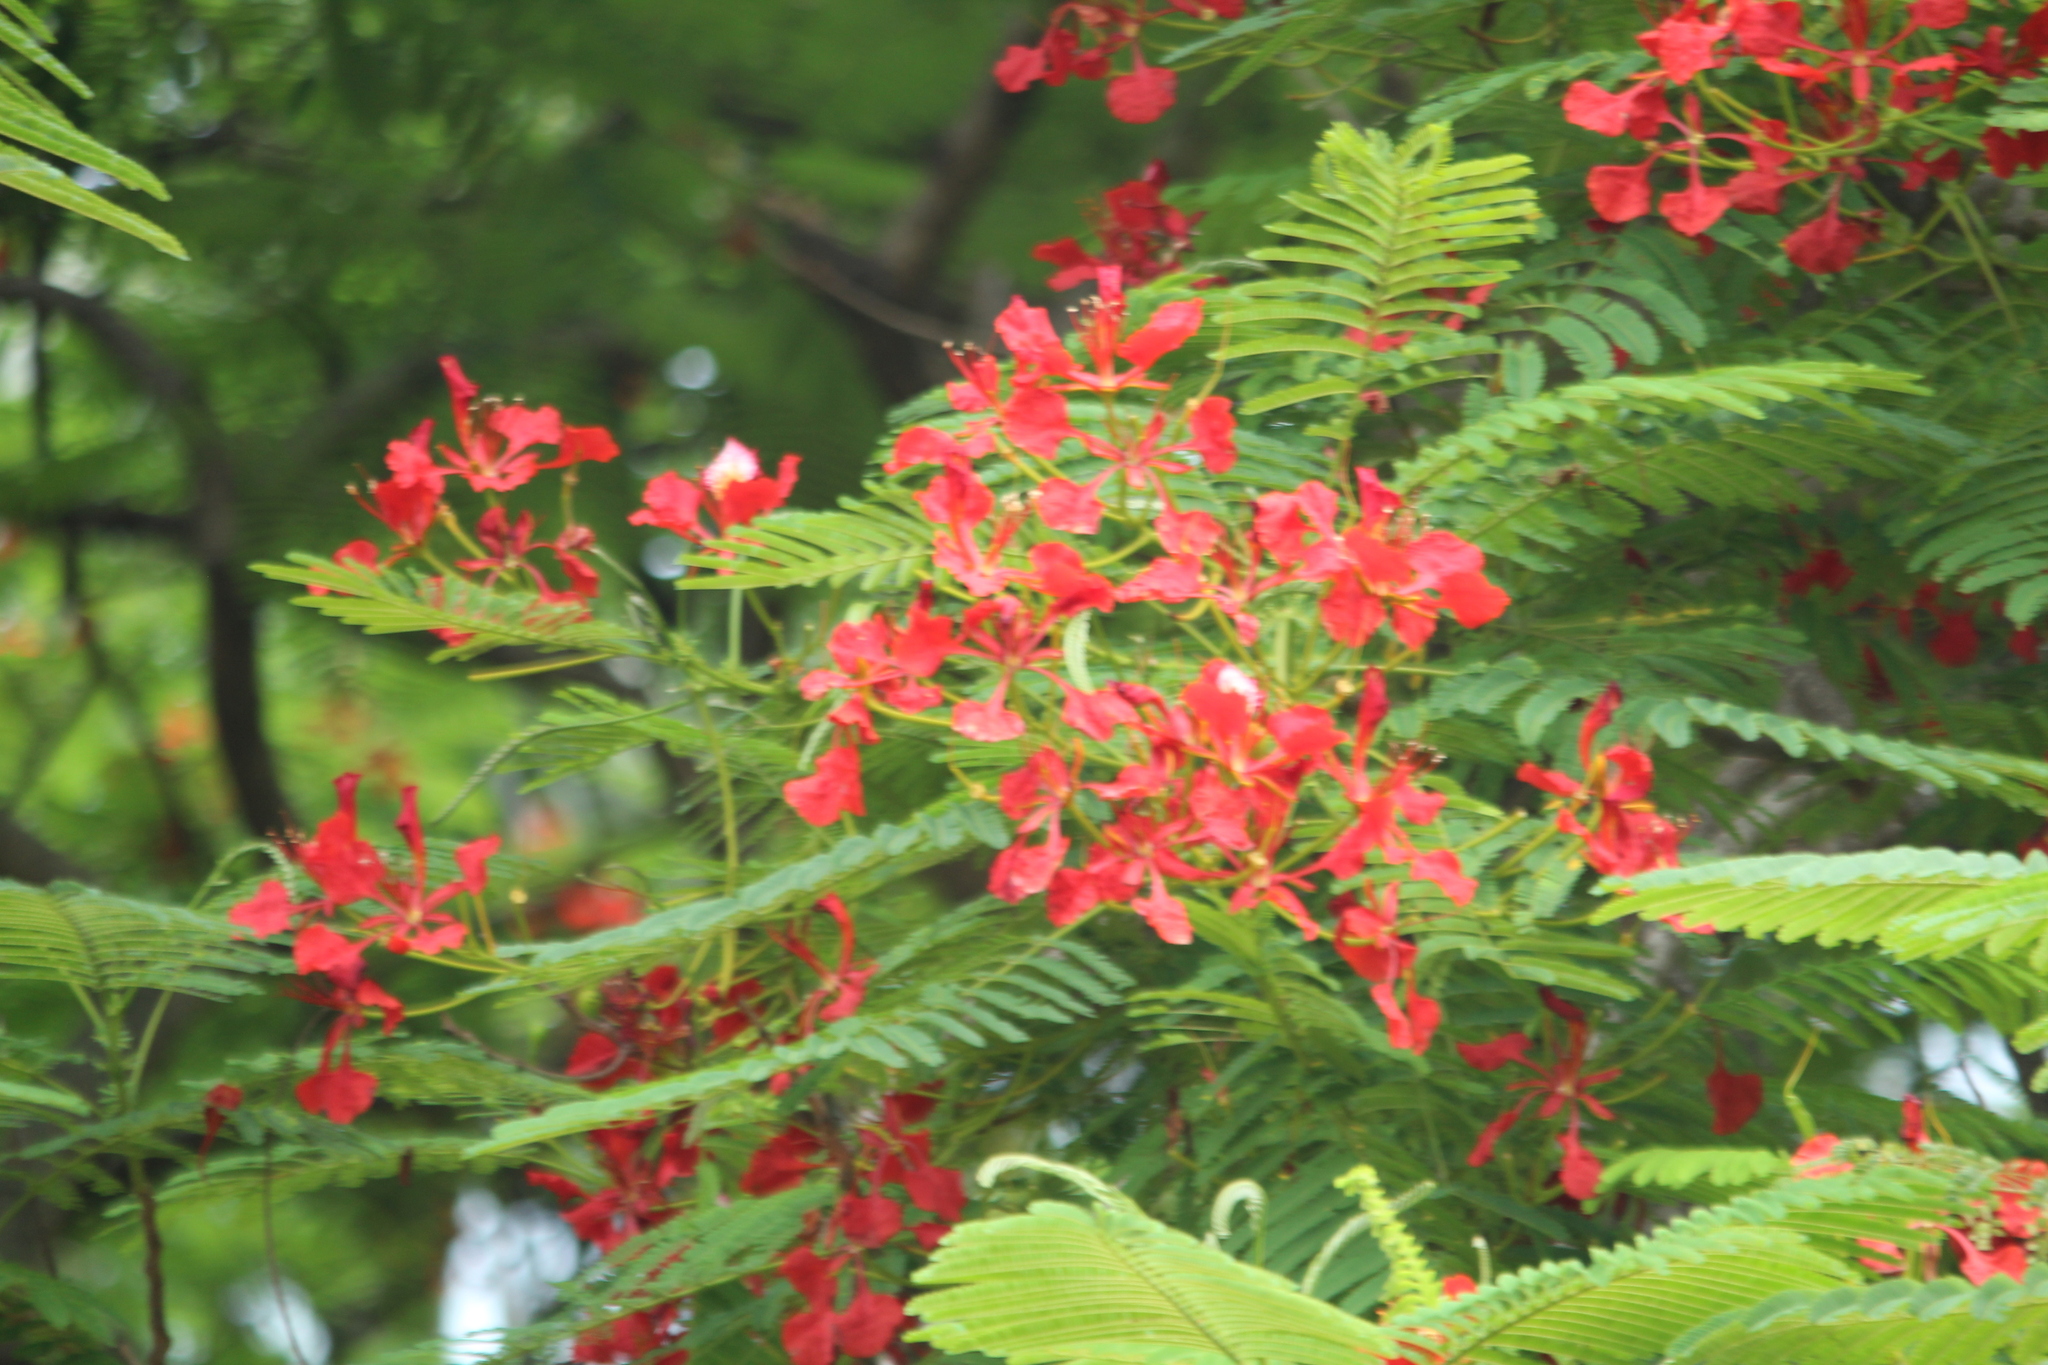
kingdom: Plantae
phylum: Tracheophyta
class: Magnoliopsida
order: Fabales
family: Fabaceae
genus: Delonix
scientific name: Delonix regia
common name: Royal poinciana
